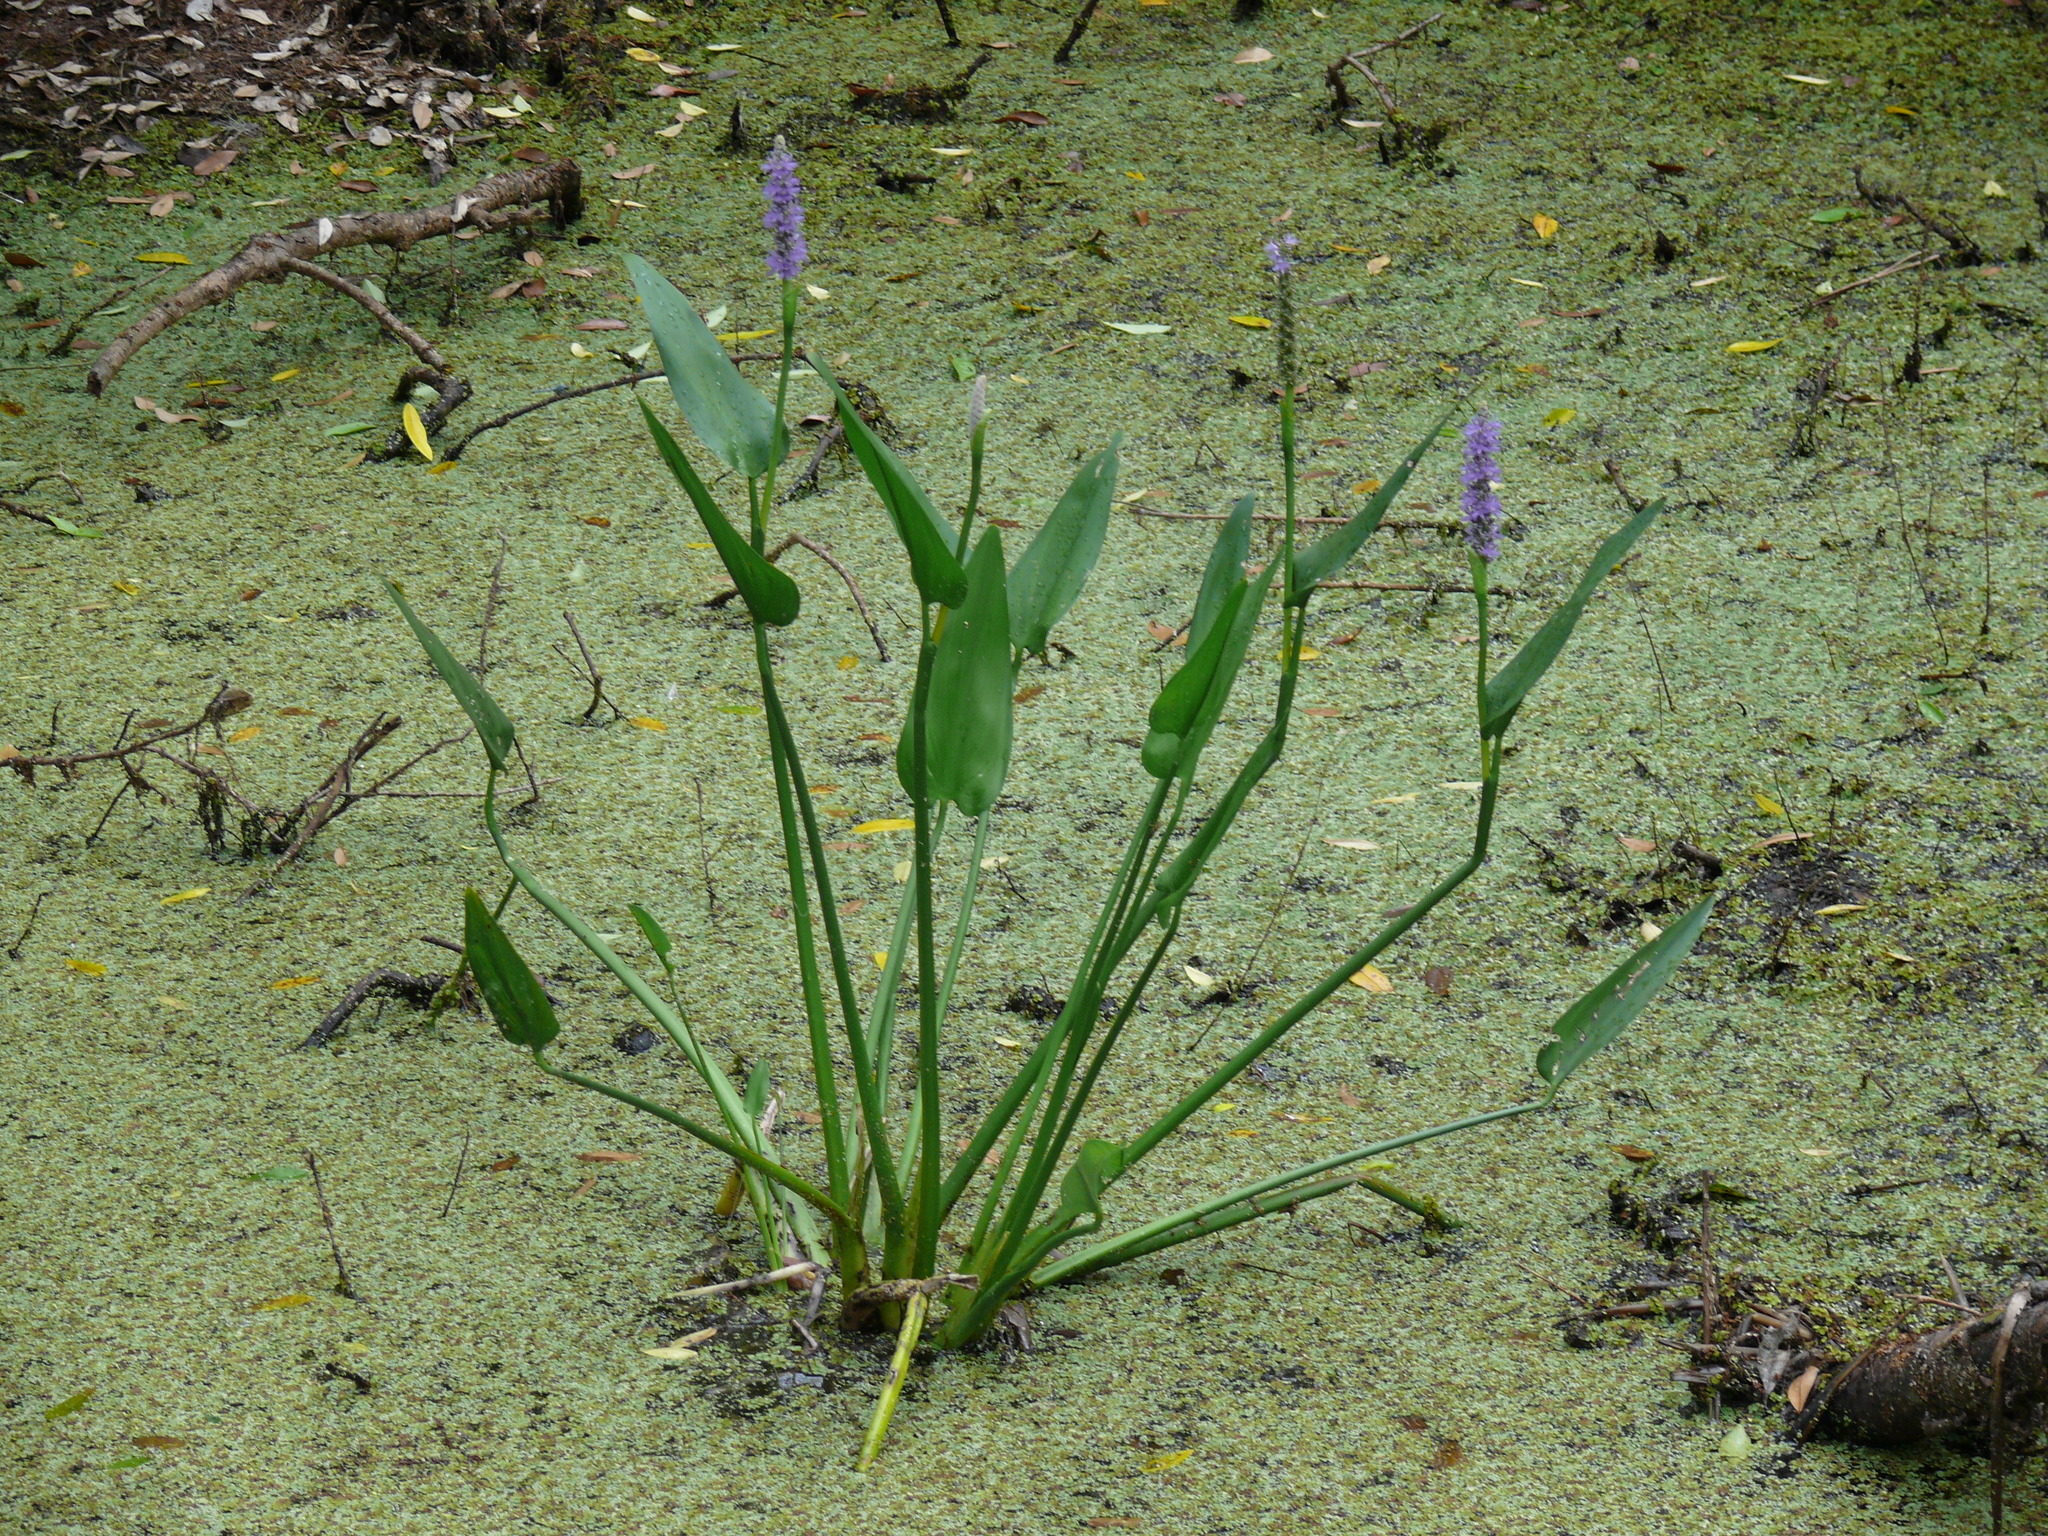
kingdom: Plantae
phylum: Tracheophyta
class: Liliopsida
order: Commelinales
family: Pontederiaceae
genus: Pontederia
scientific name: Pontederia cordata
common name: Pickerelweed
